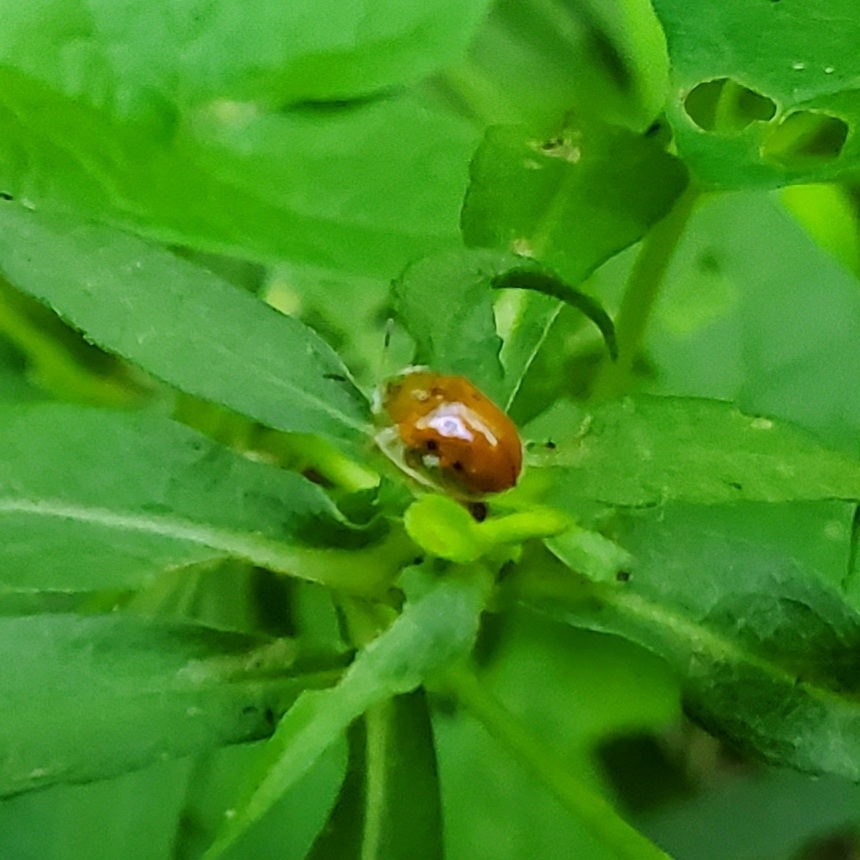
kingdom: Animalia
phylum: Arthropoda
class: Insecta
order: Coleoptera
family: Chrysomelidae
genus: Charidotella
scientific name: Charidotella sexpunctata
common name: Golden tortoise beetle
